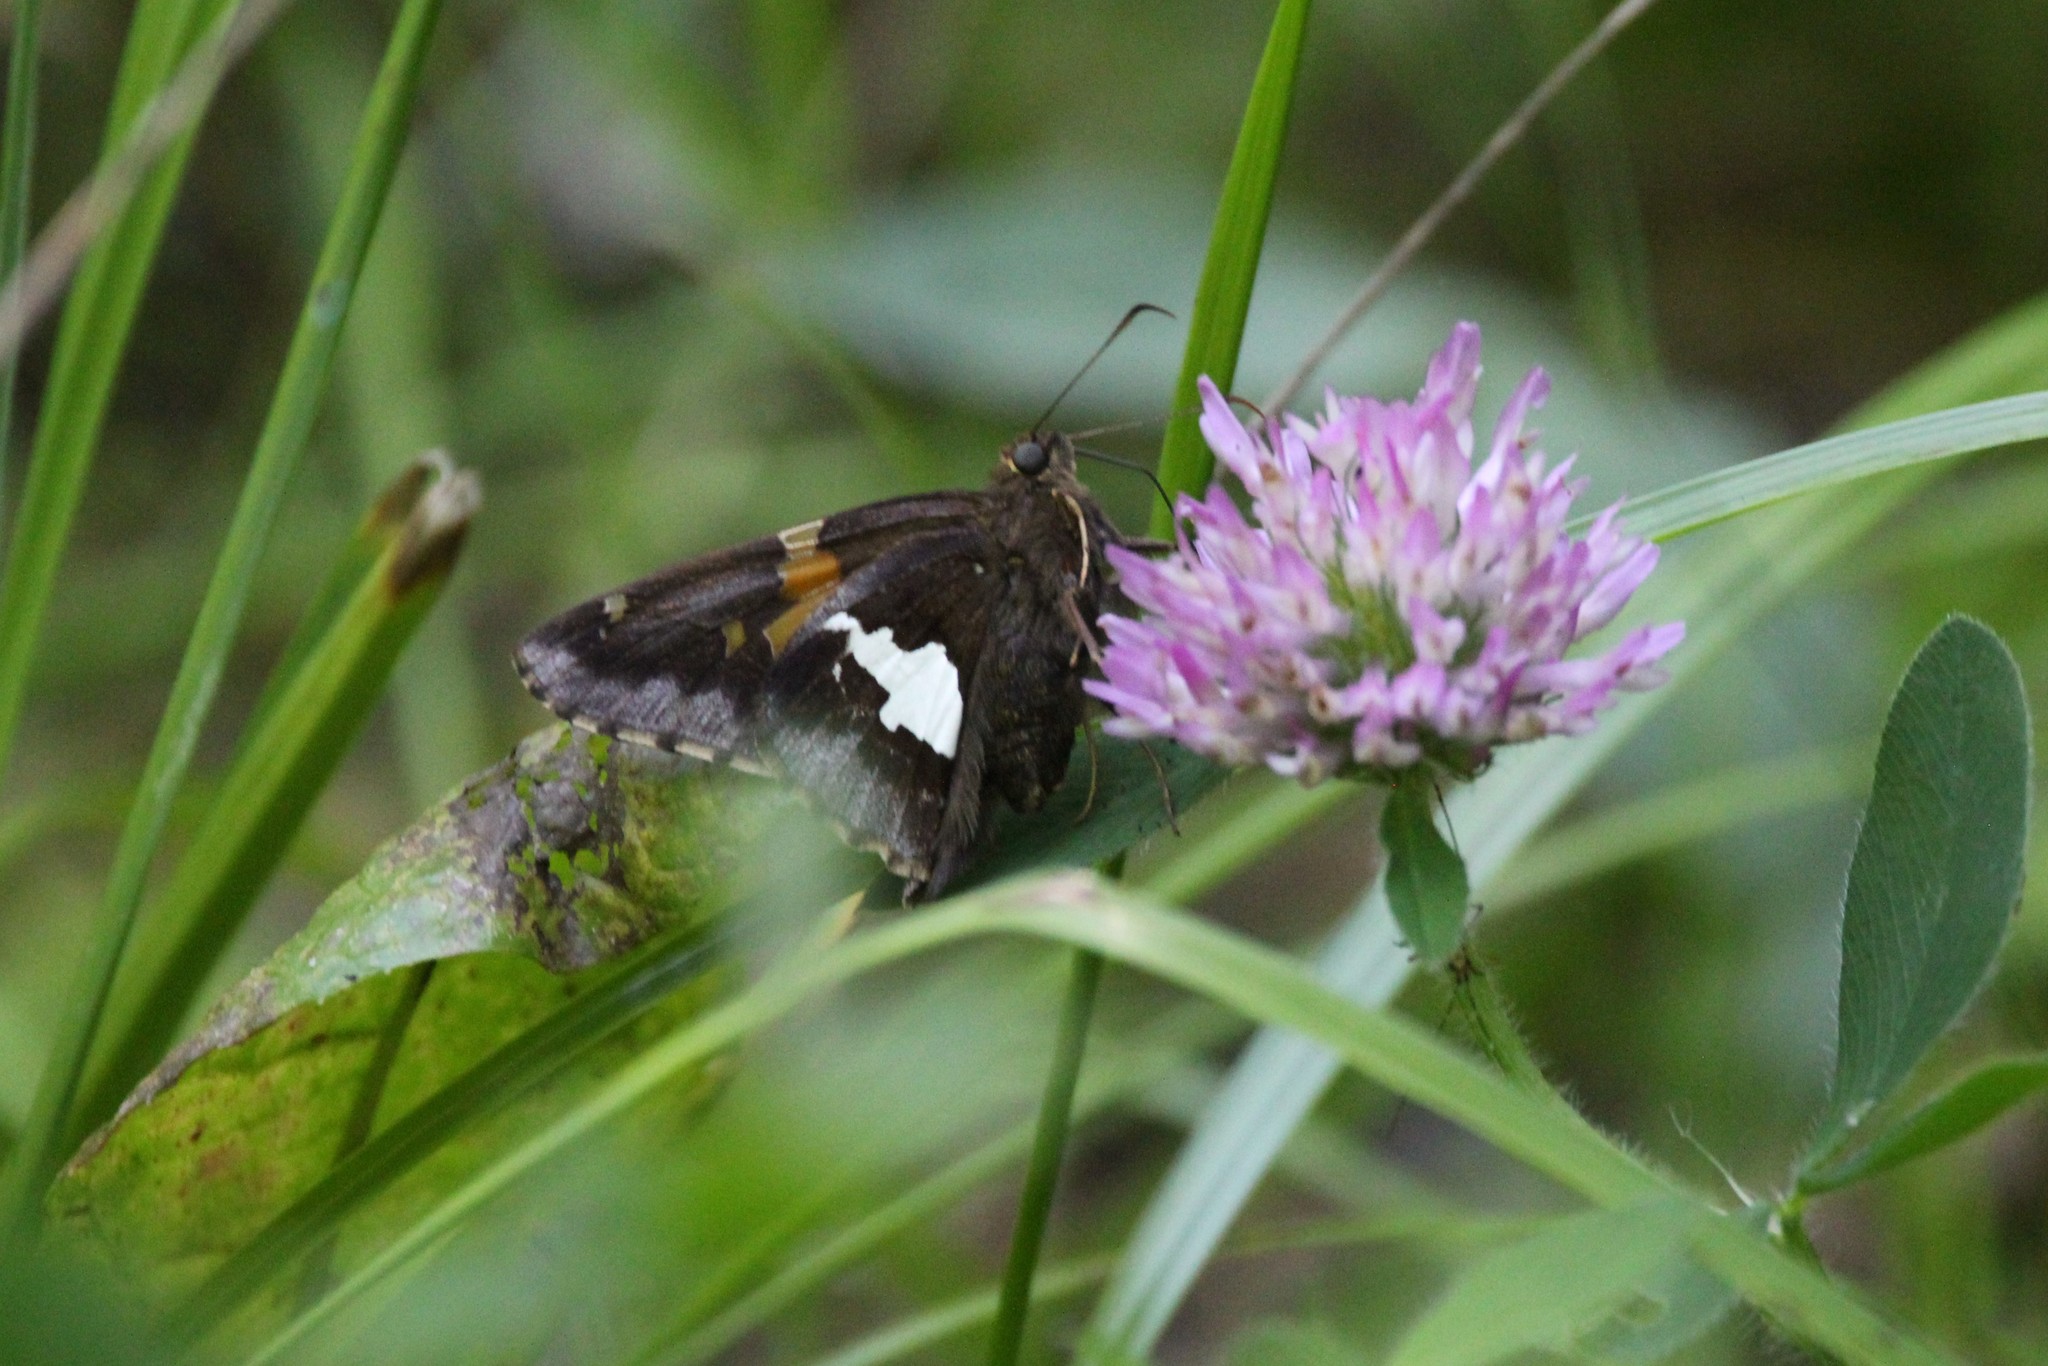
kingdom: Animalia
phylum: Arthropoda
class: Insecta
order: Lepidoptera
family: Hesperiidae
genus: Epargyreus
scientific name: Epargyreus clarus
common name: Silver-spotted skipper
